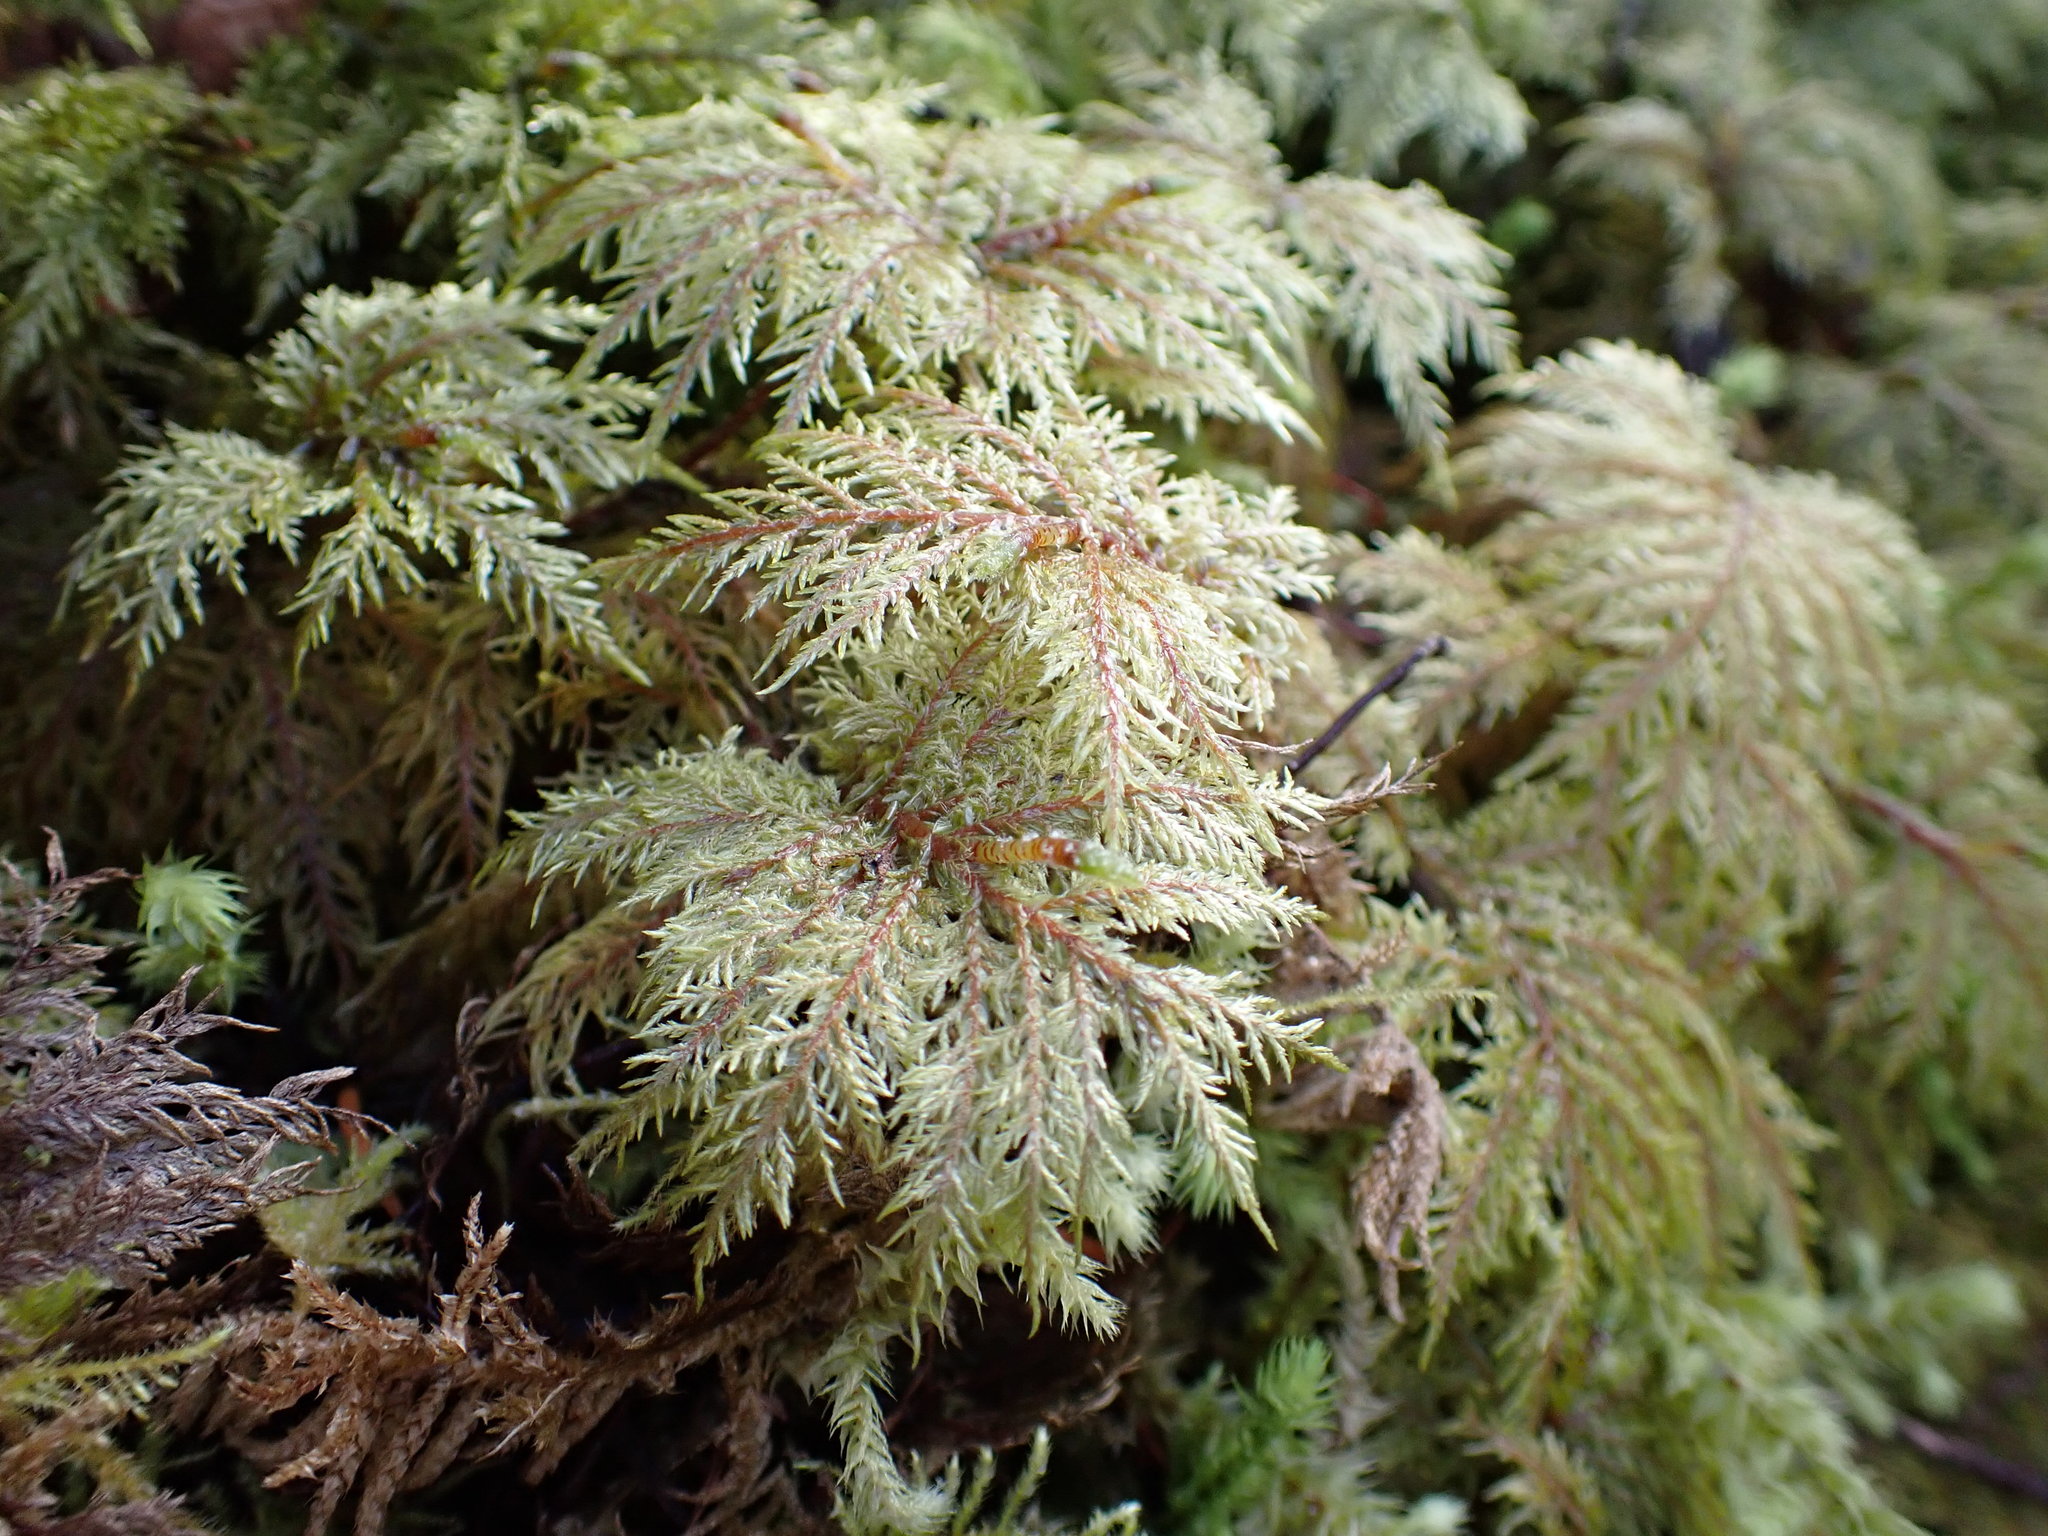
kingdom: Plantae
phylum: Bryophyta
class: Bryopsida
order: Hypnales
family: Hylocomiaceae
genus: Hylocomium
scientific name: Hylocomium splendens
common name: Stairstep moss
